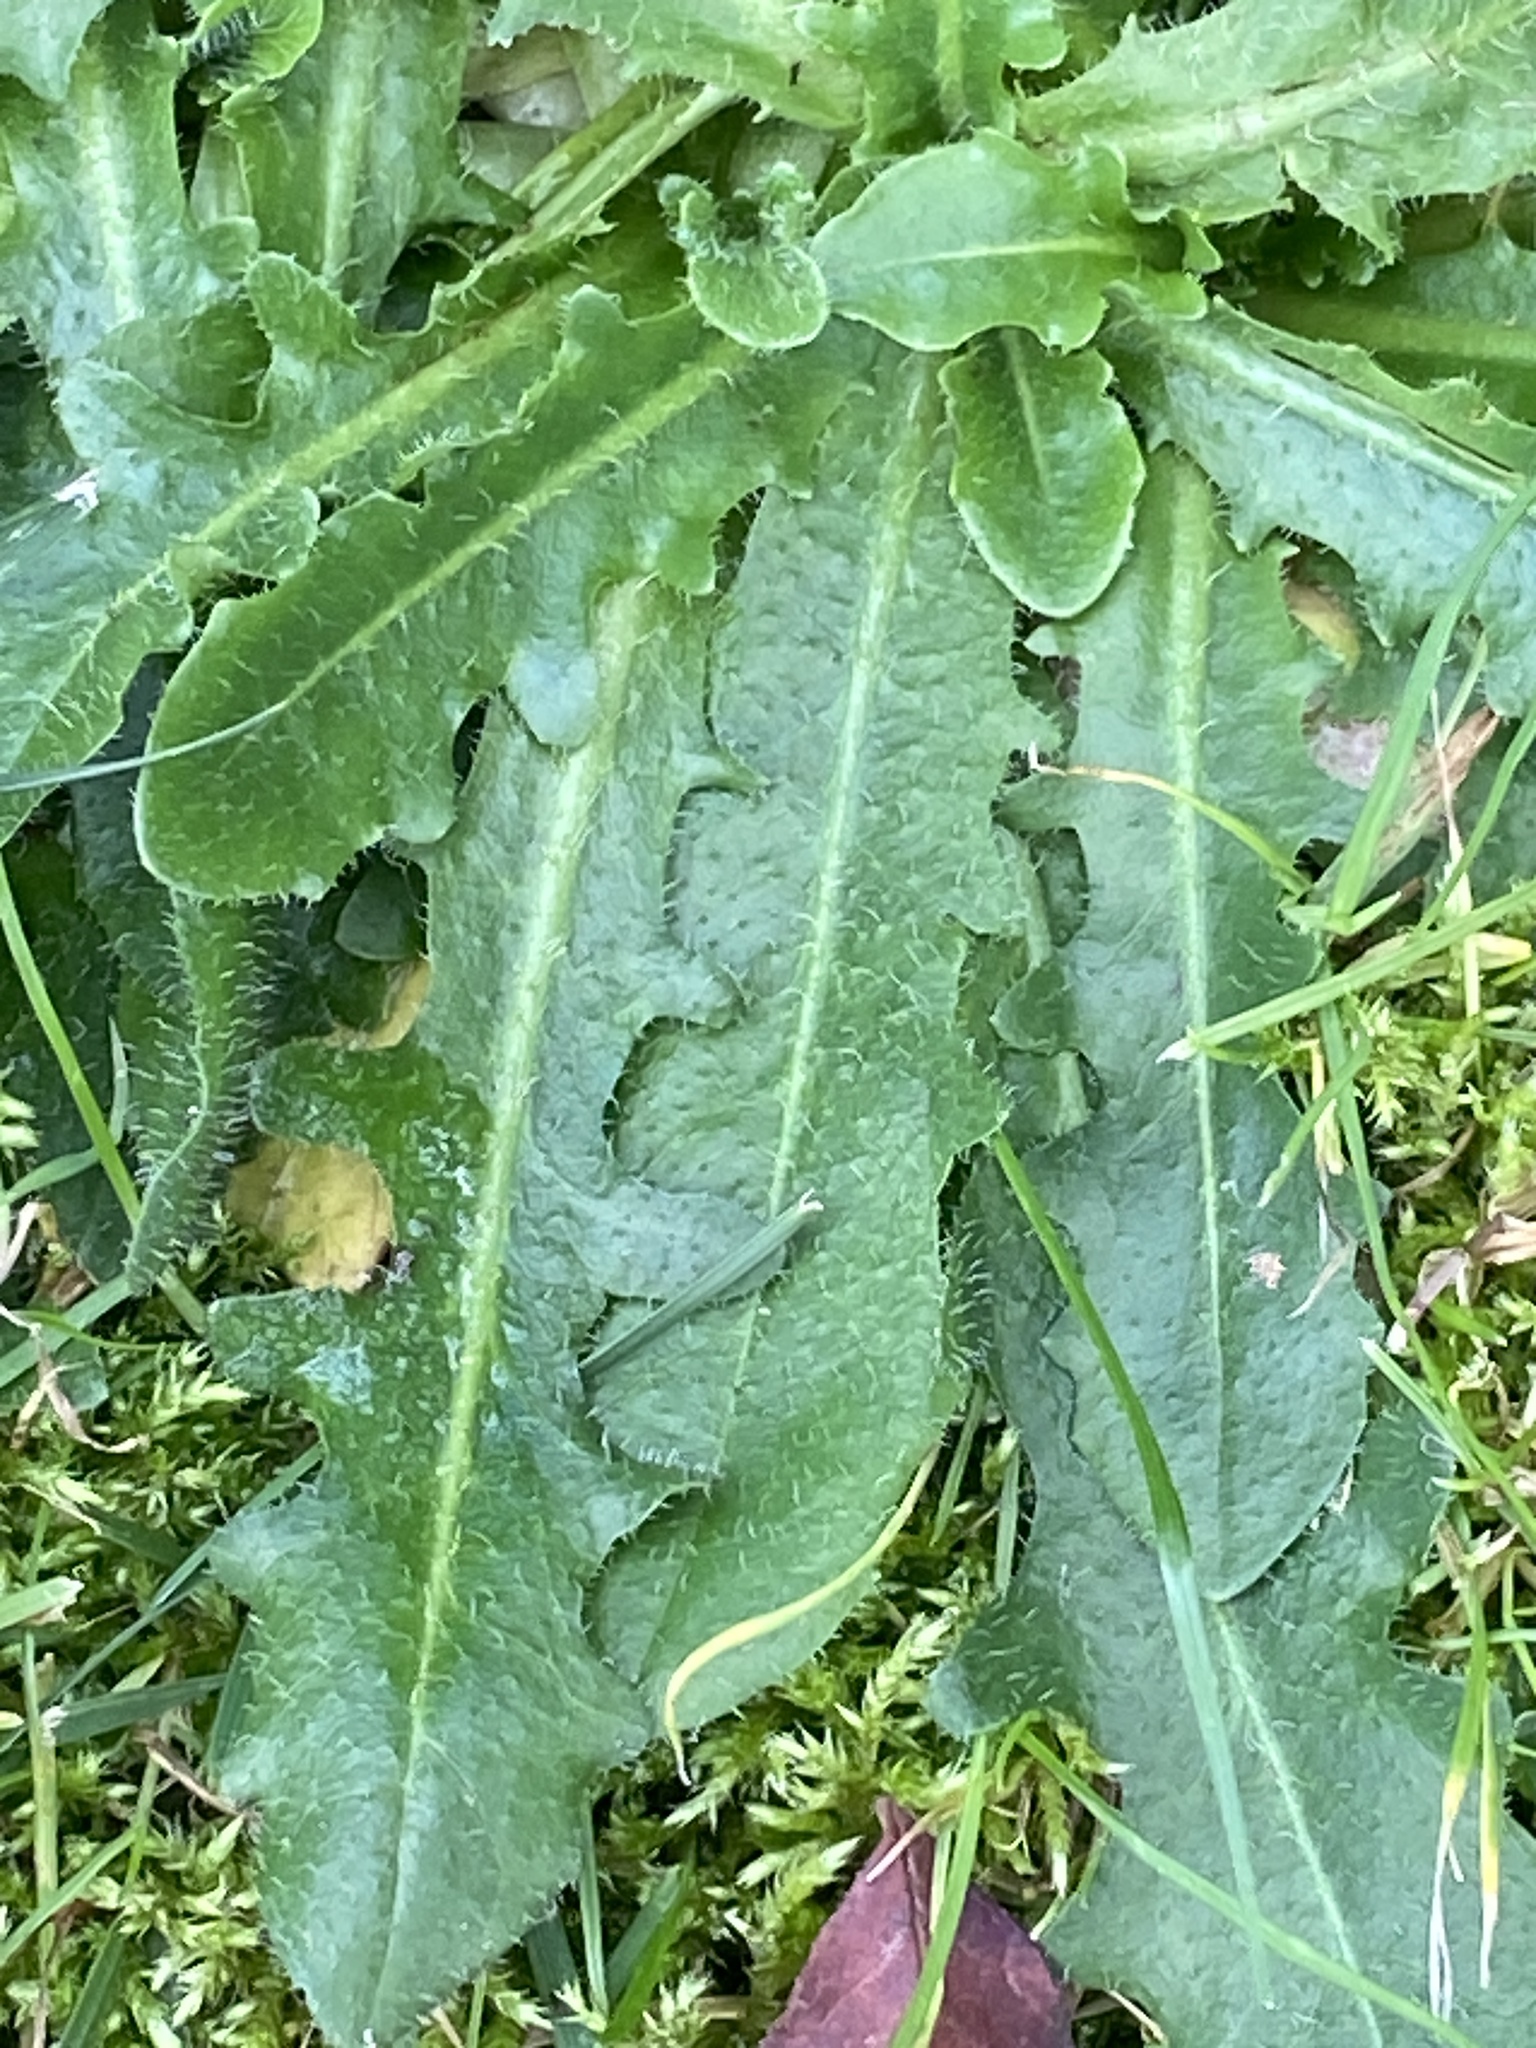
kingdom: Plantae
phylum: Tracheophyta
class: Magnoliopsida
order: Asterales
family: Asteraceae
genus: Hypochaeris
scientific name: Hypochaeris radicata
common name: Flatweed
